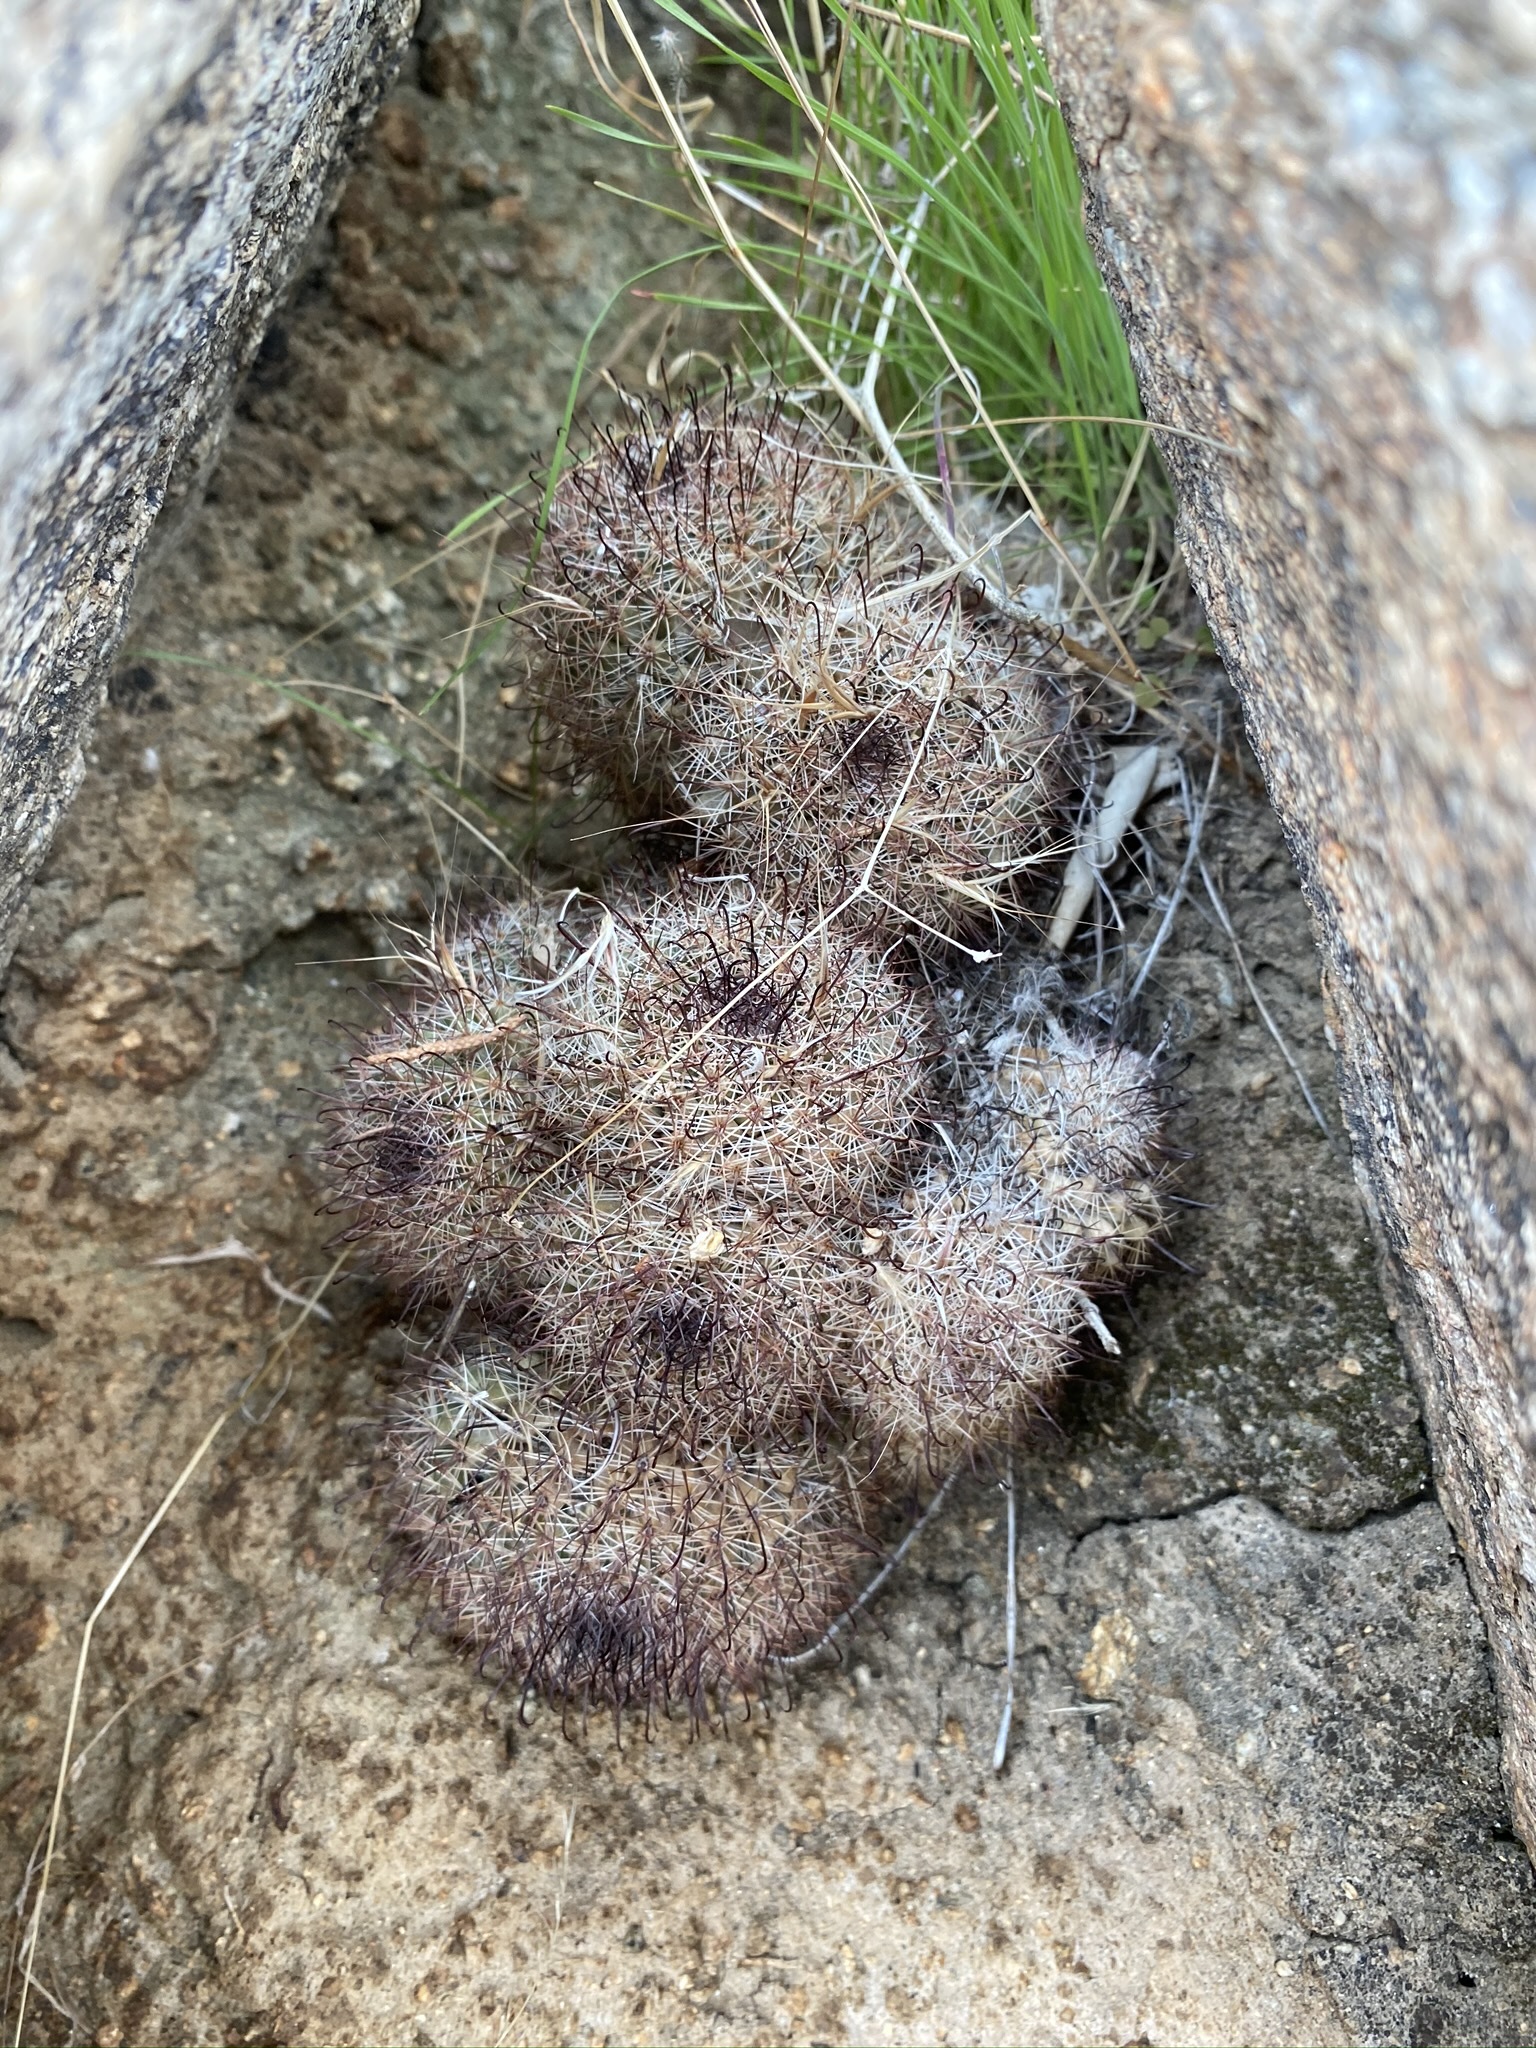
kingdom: Plantae
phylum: Tracheophyta
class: Magnoliopsida
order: Caryophyllales
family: Cactaceae
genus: Cochemiea
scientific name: Cochemiea dioica
